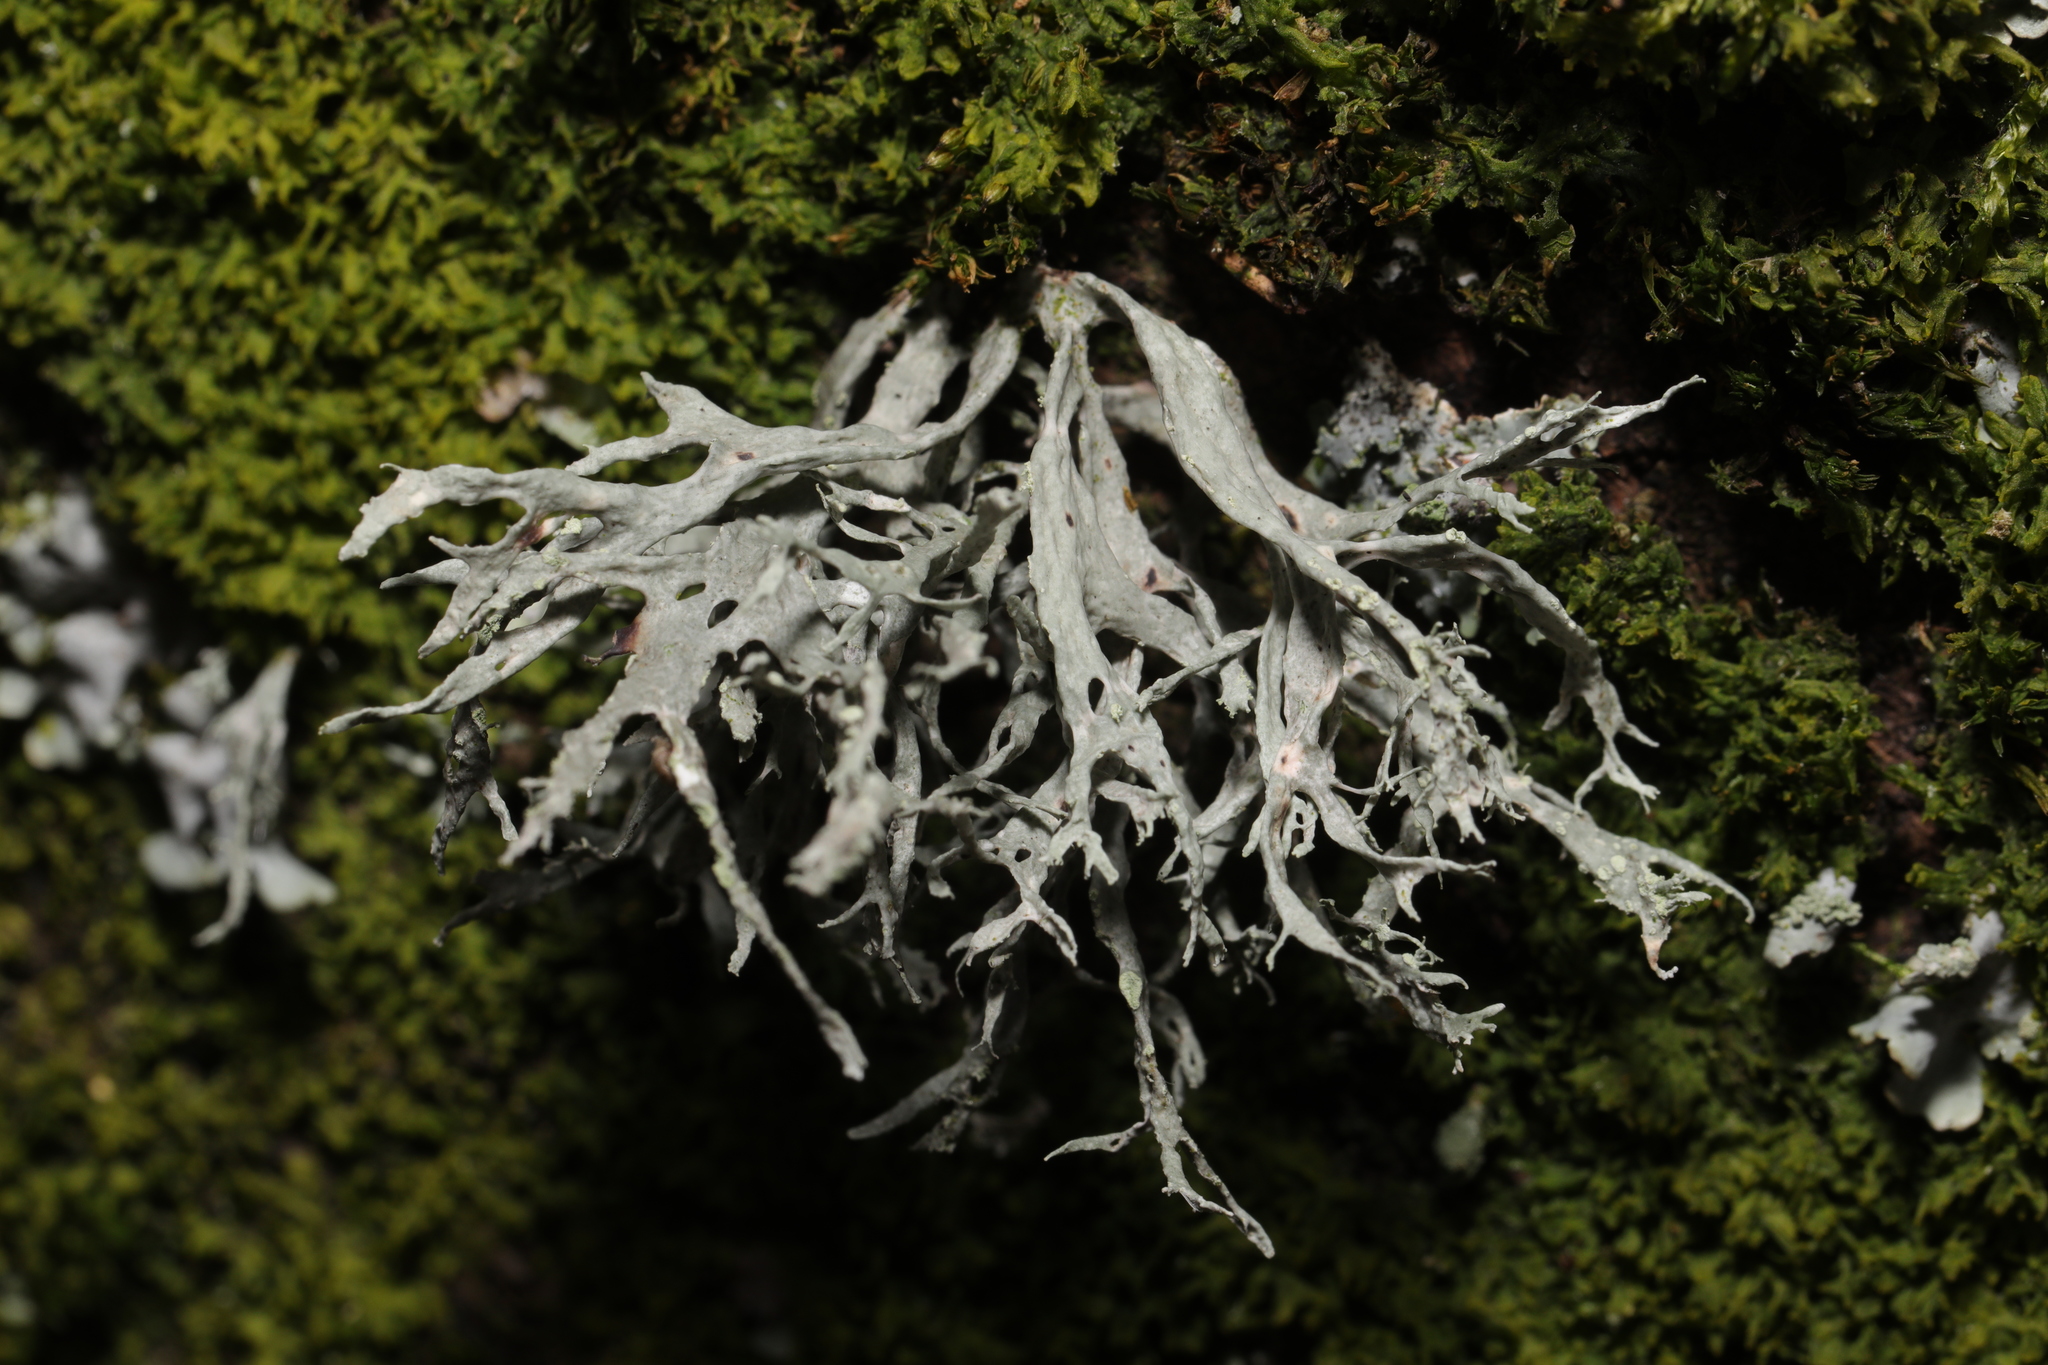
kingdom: Fungi
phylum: Ascomycota
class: Lecanoromycetes
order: Lecanorales
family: Ramalinaceae
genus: Ramalina
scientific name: Ramalina farinacea
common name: Farinose cartilage lichen
